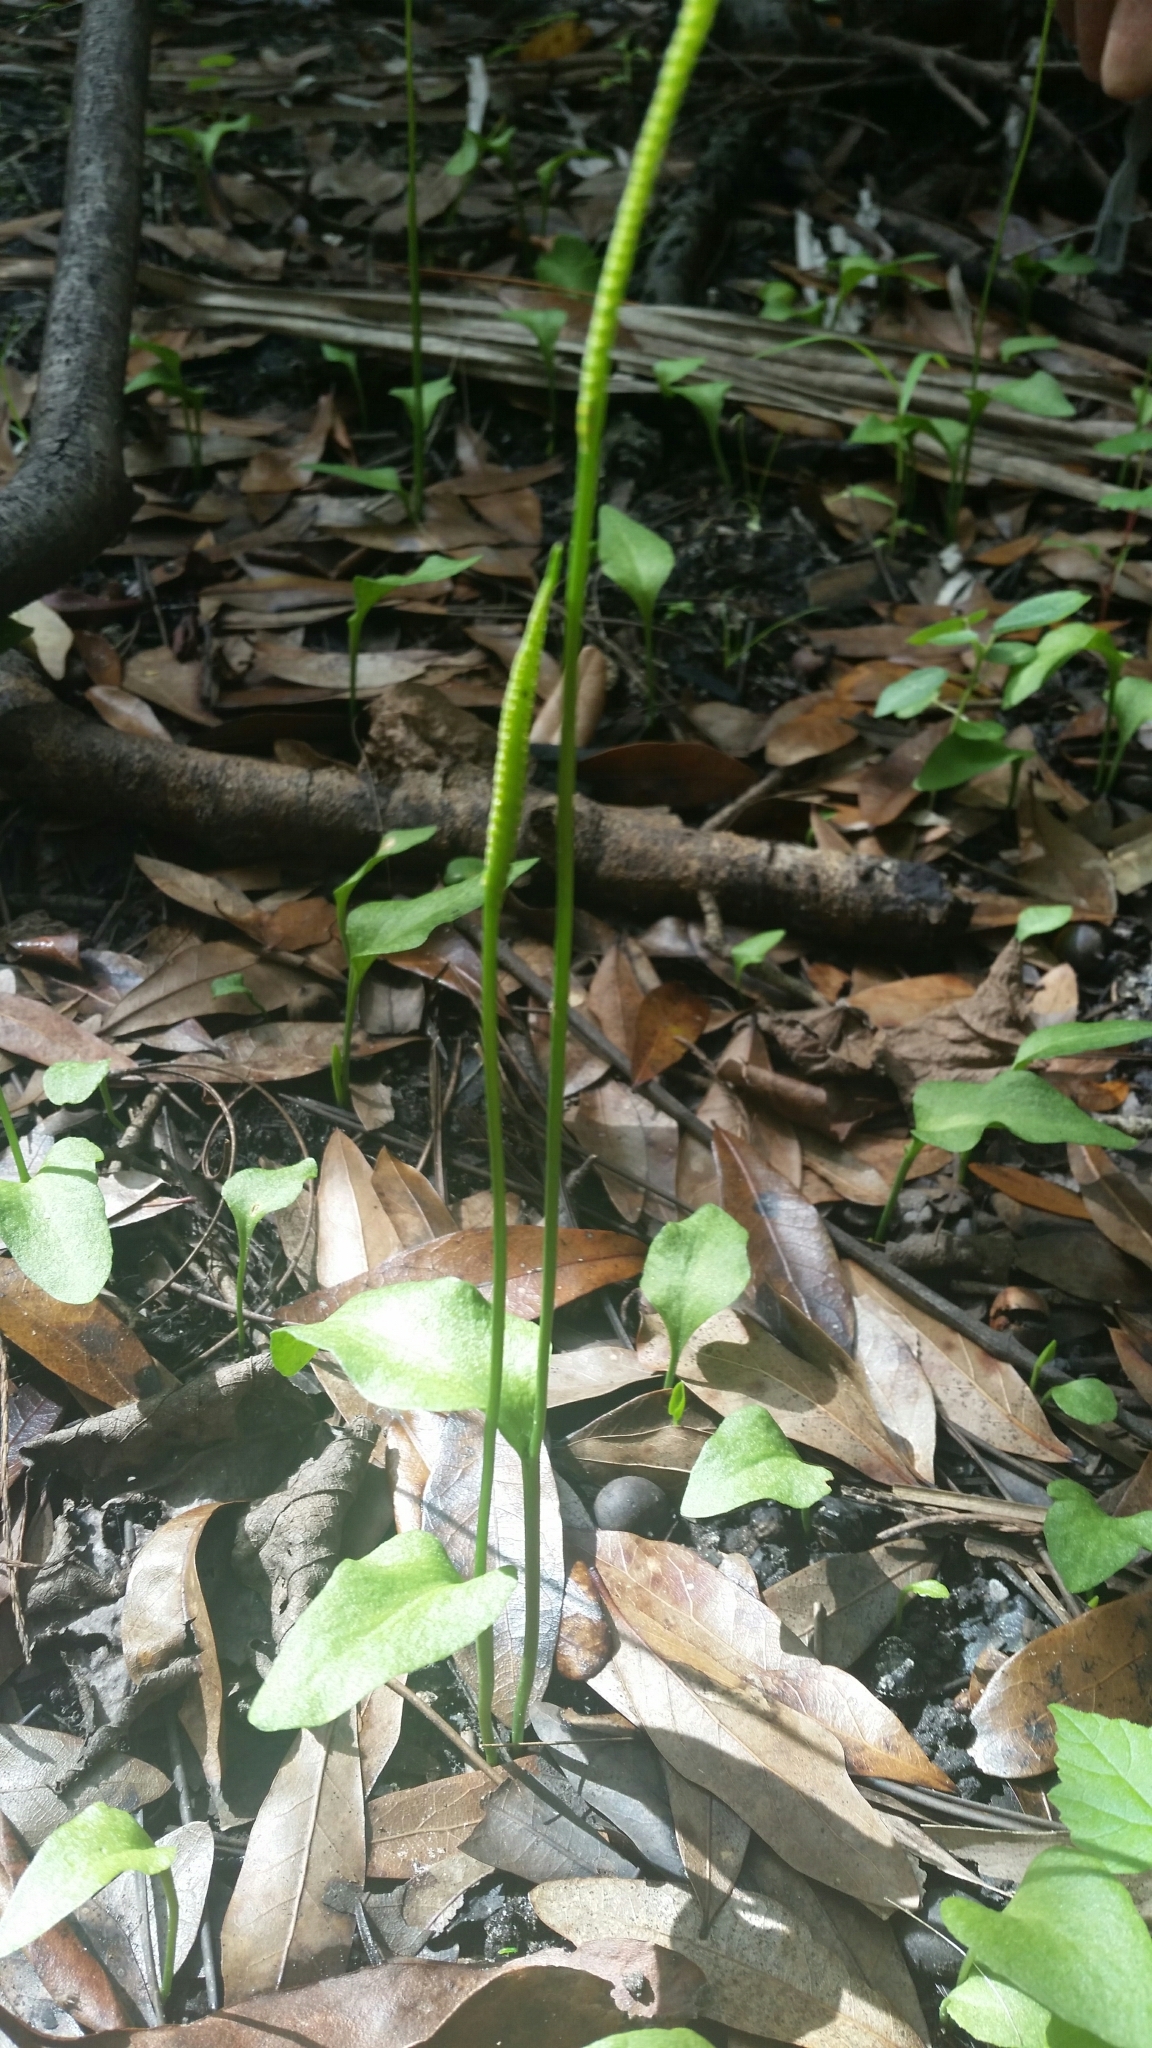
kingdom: Plantae
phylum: Tracheophyta
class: Polypodiopsida
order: Ophioglossales
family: Ophioglossaceae
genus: Ophioglossum
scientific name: Ophioglossum petiolatum
